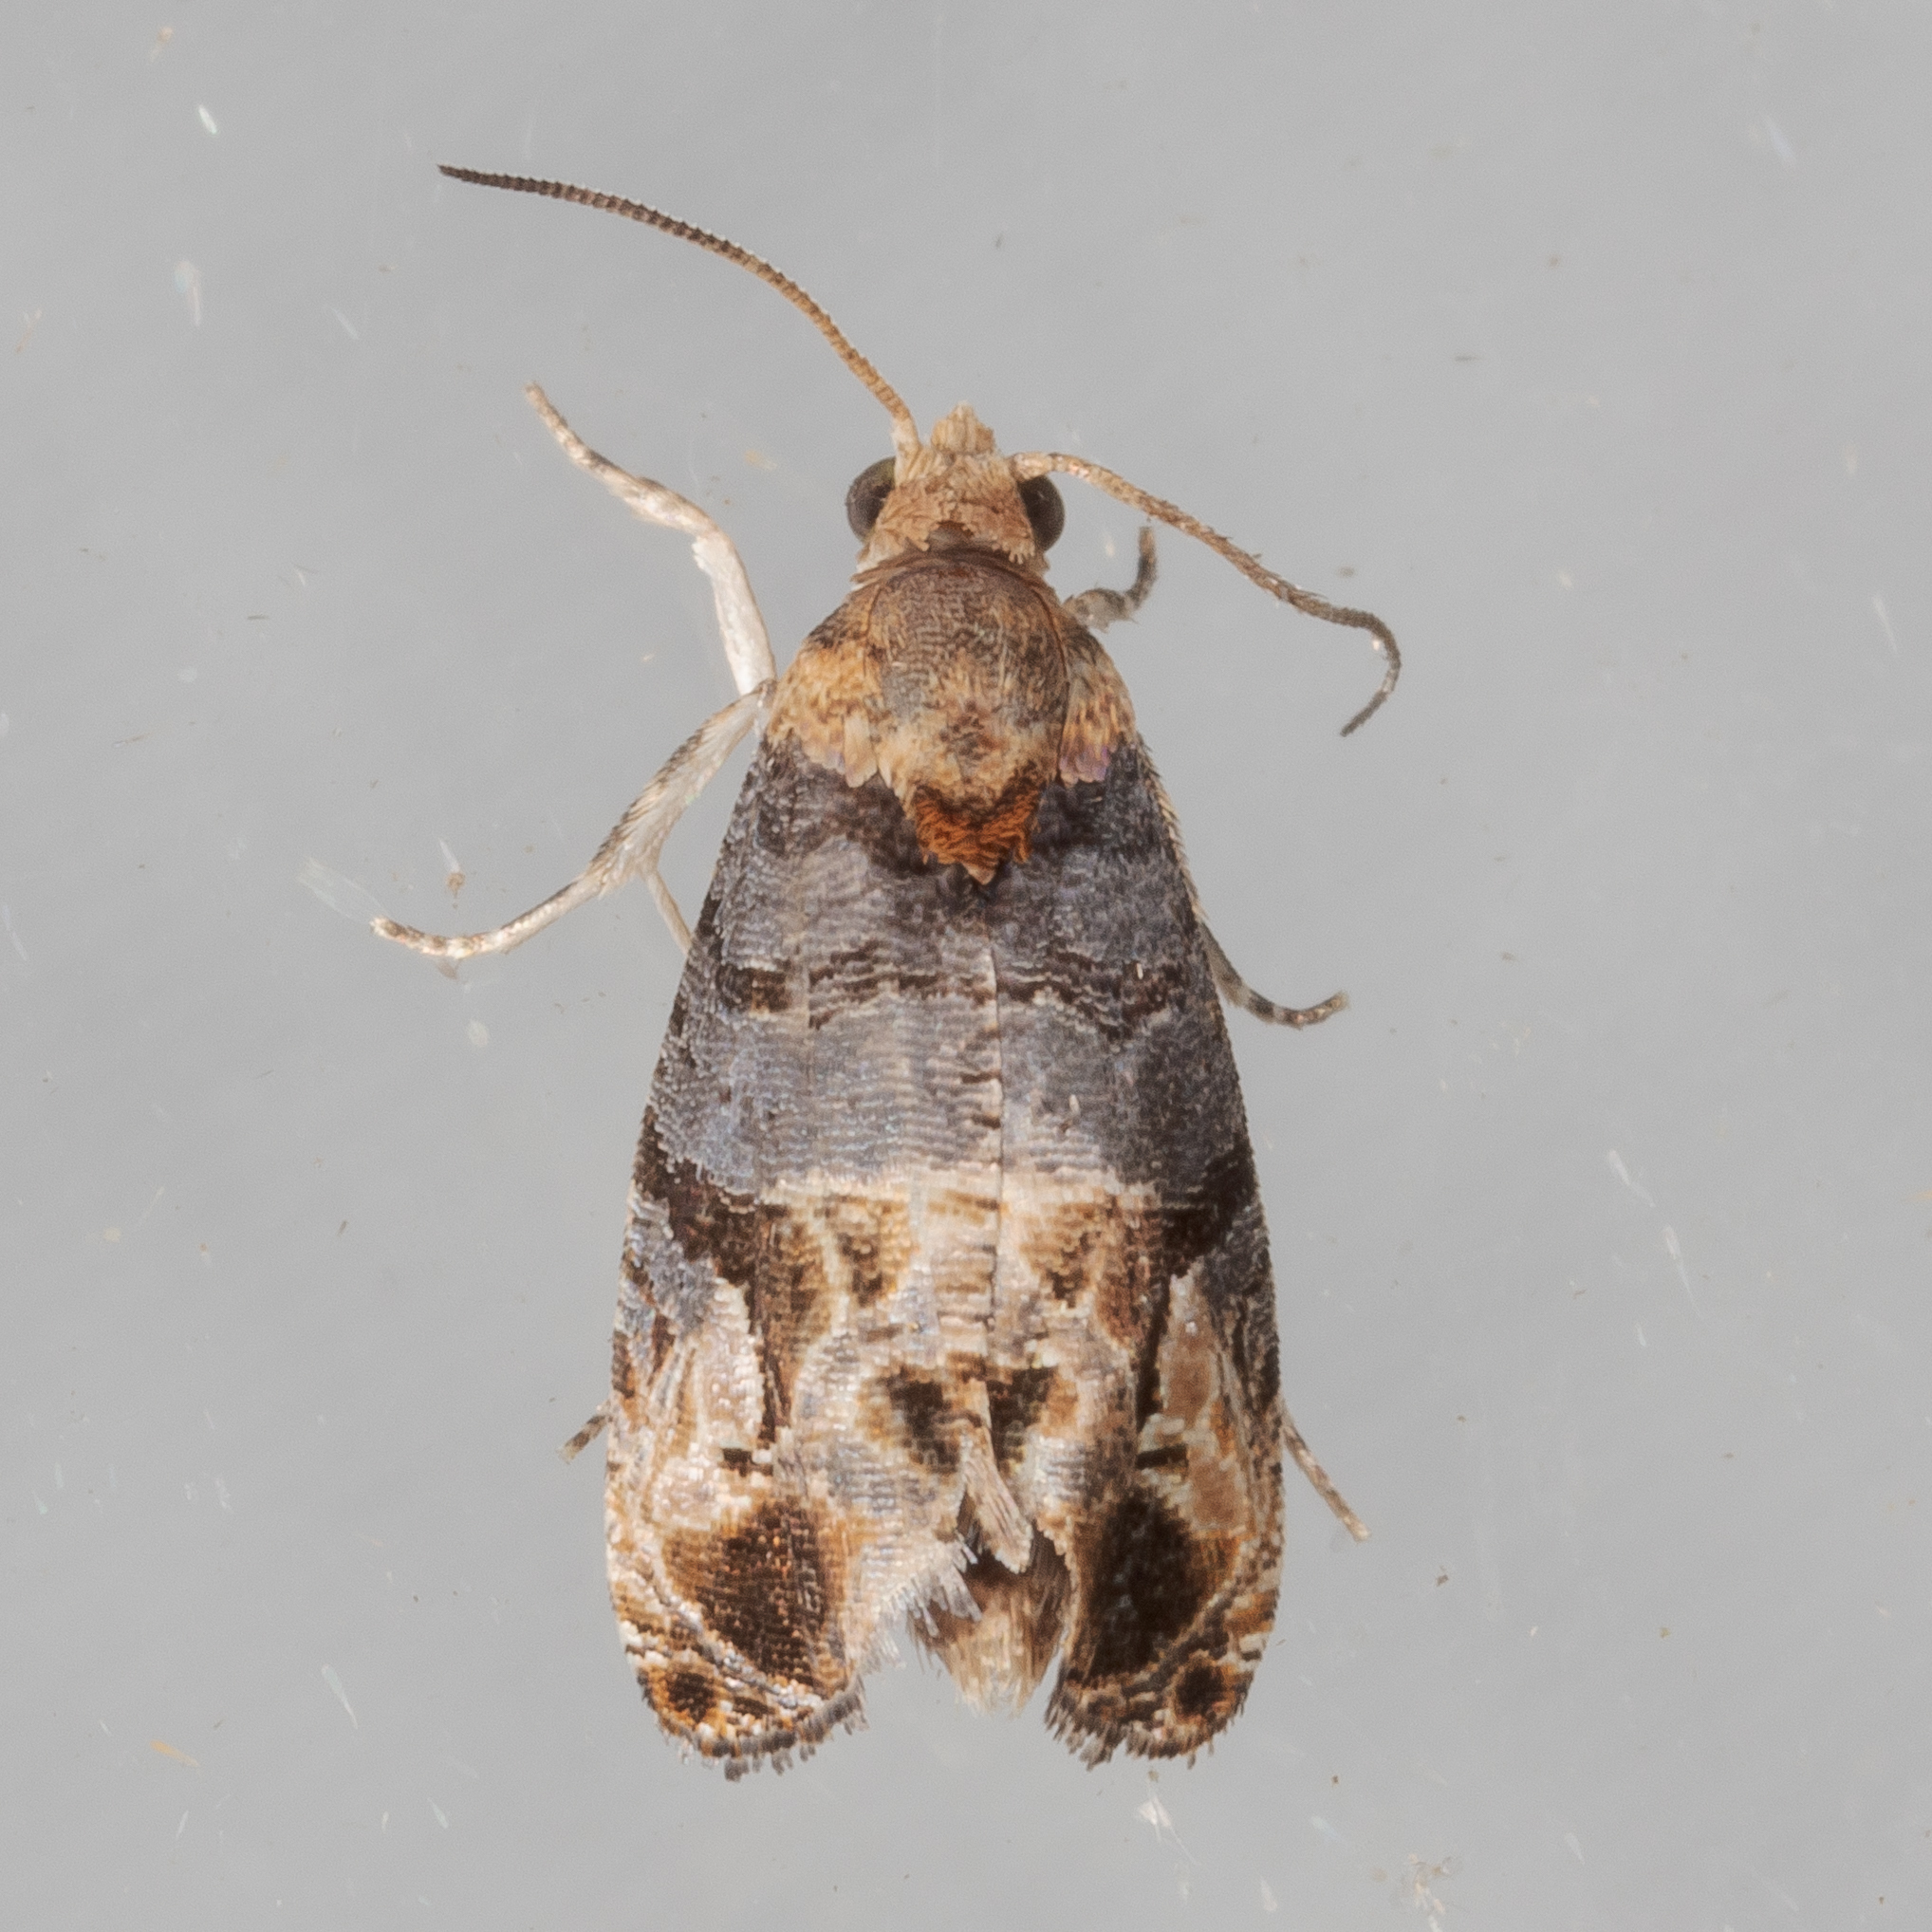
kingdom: Animalia
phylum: Arthropoda
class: Insecta
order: Lepidoptera
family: Tortricidae
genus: Paralobesia
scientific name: Paralobesia viteana
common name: Grape berry moth
